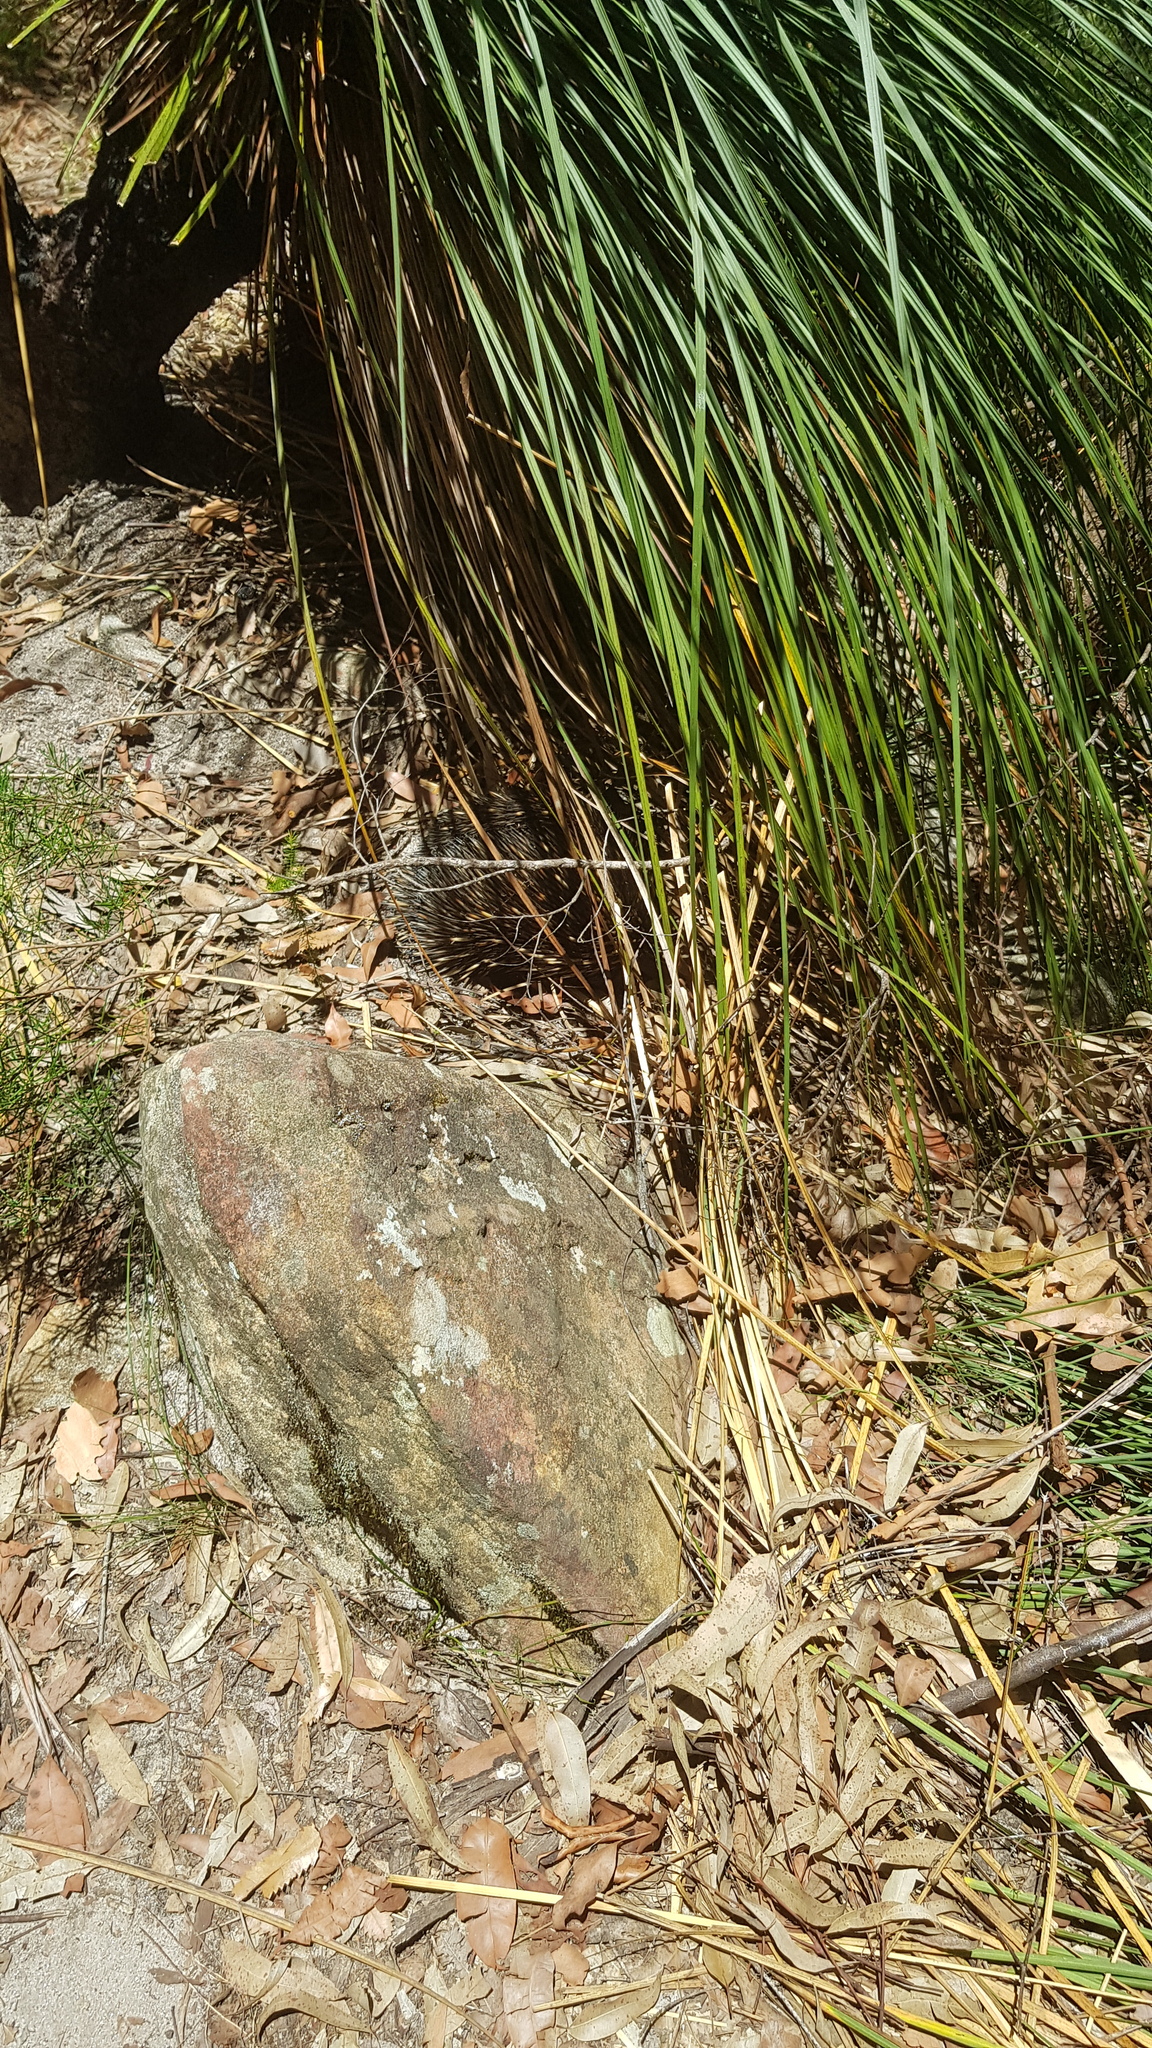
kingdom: Animalia
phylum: Chordata
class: Mammalia
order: Monotremata
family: Tachyglossidae
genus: Tachyglossus
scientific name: Tachyglossus aculeatus
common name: Short-beaked echidna
